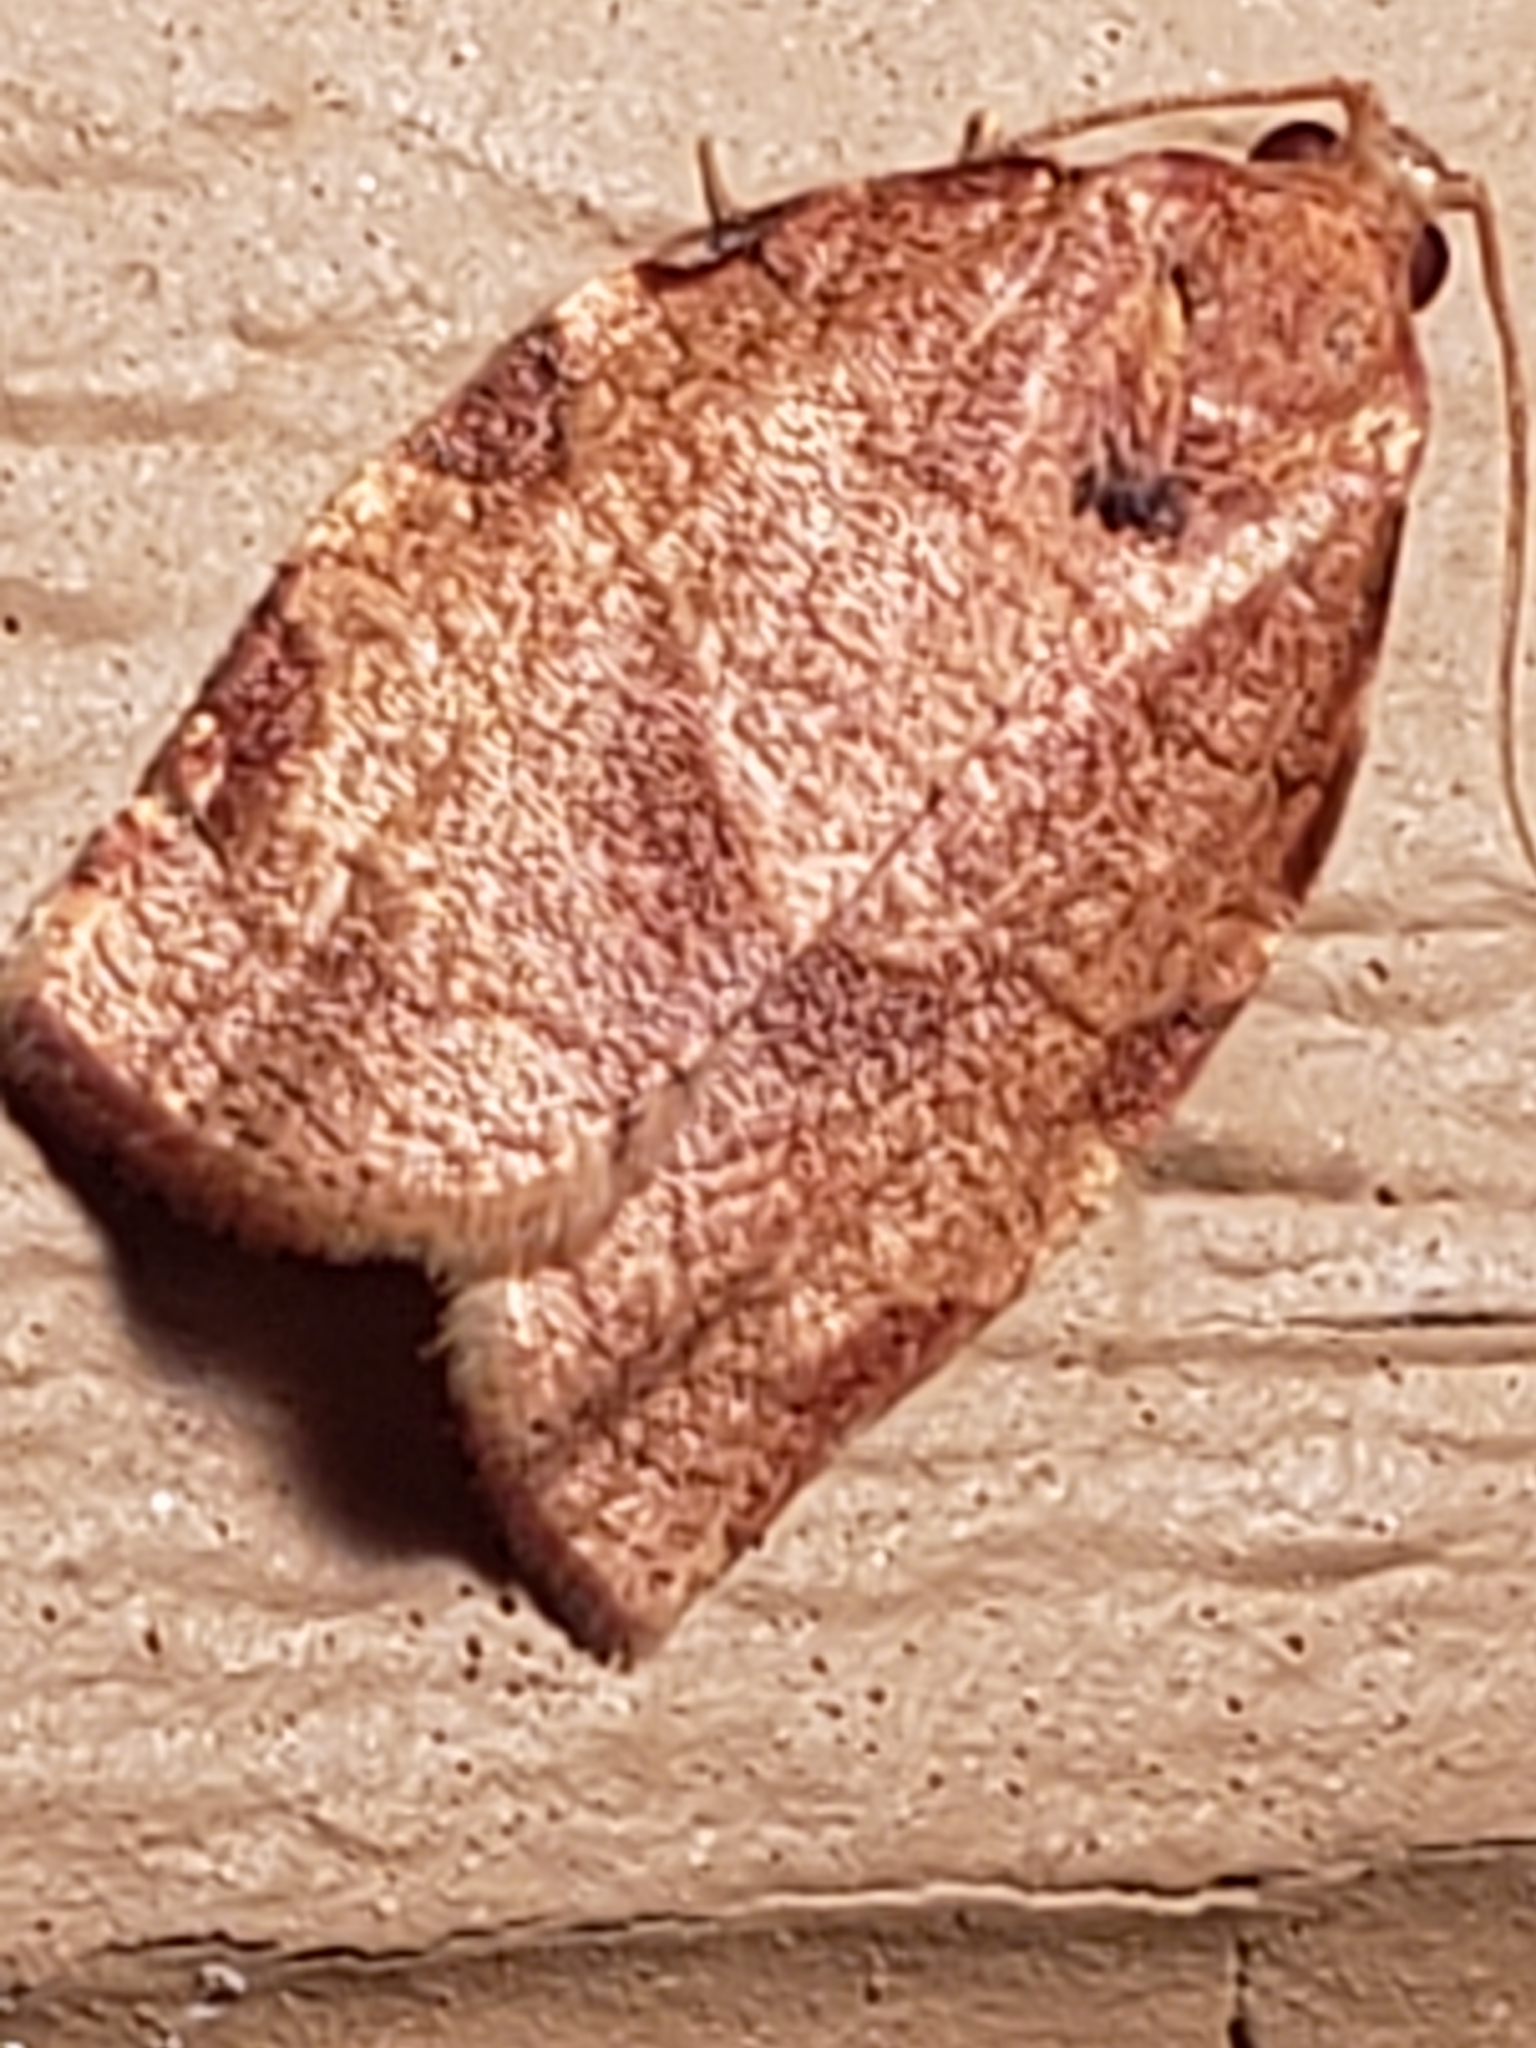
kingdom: Animalia
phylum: Arthropoda
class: Insecta
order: Lepidoptera
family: Tortricidae
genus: Choristoneura
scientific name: Choristoneura rosaceana
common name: Oblique-banded leafroller moth
